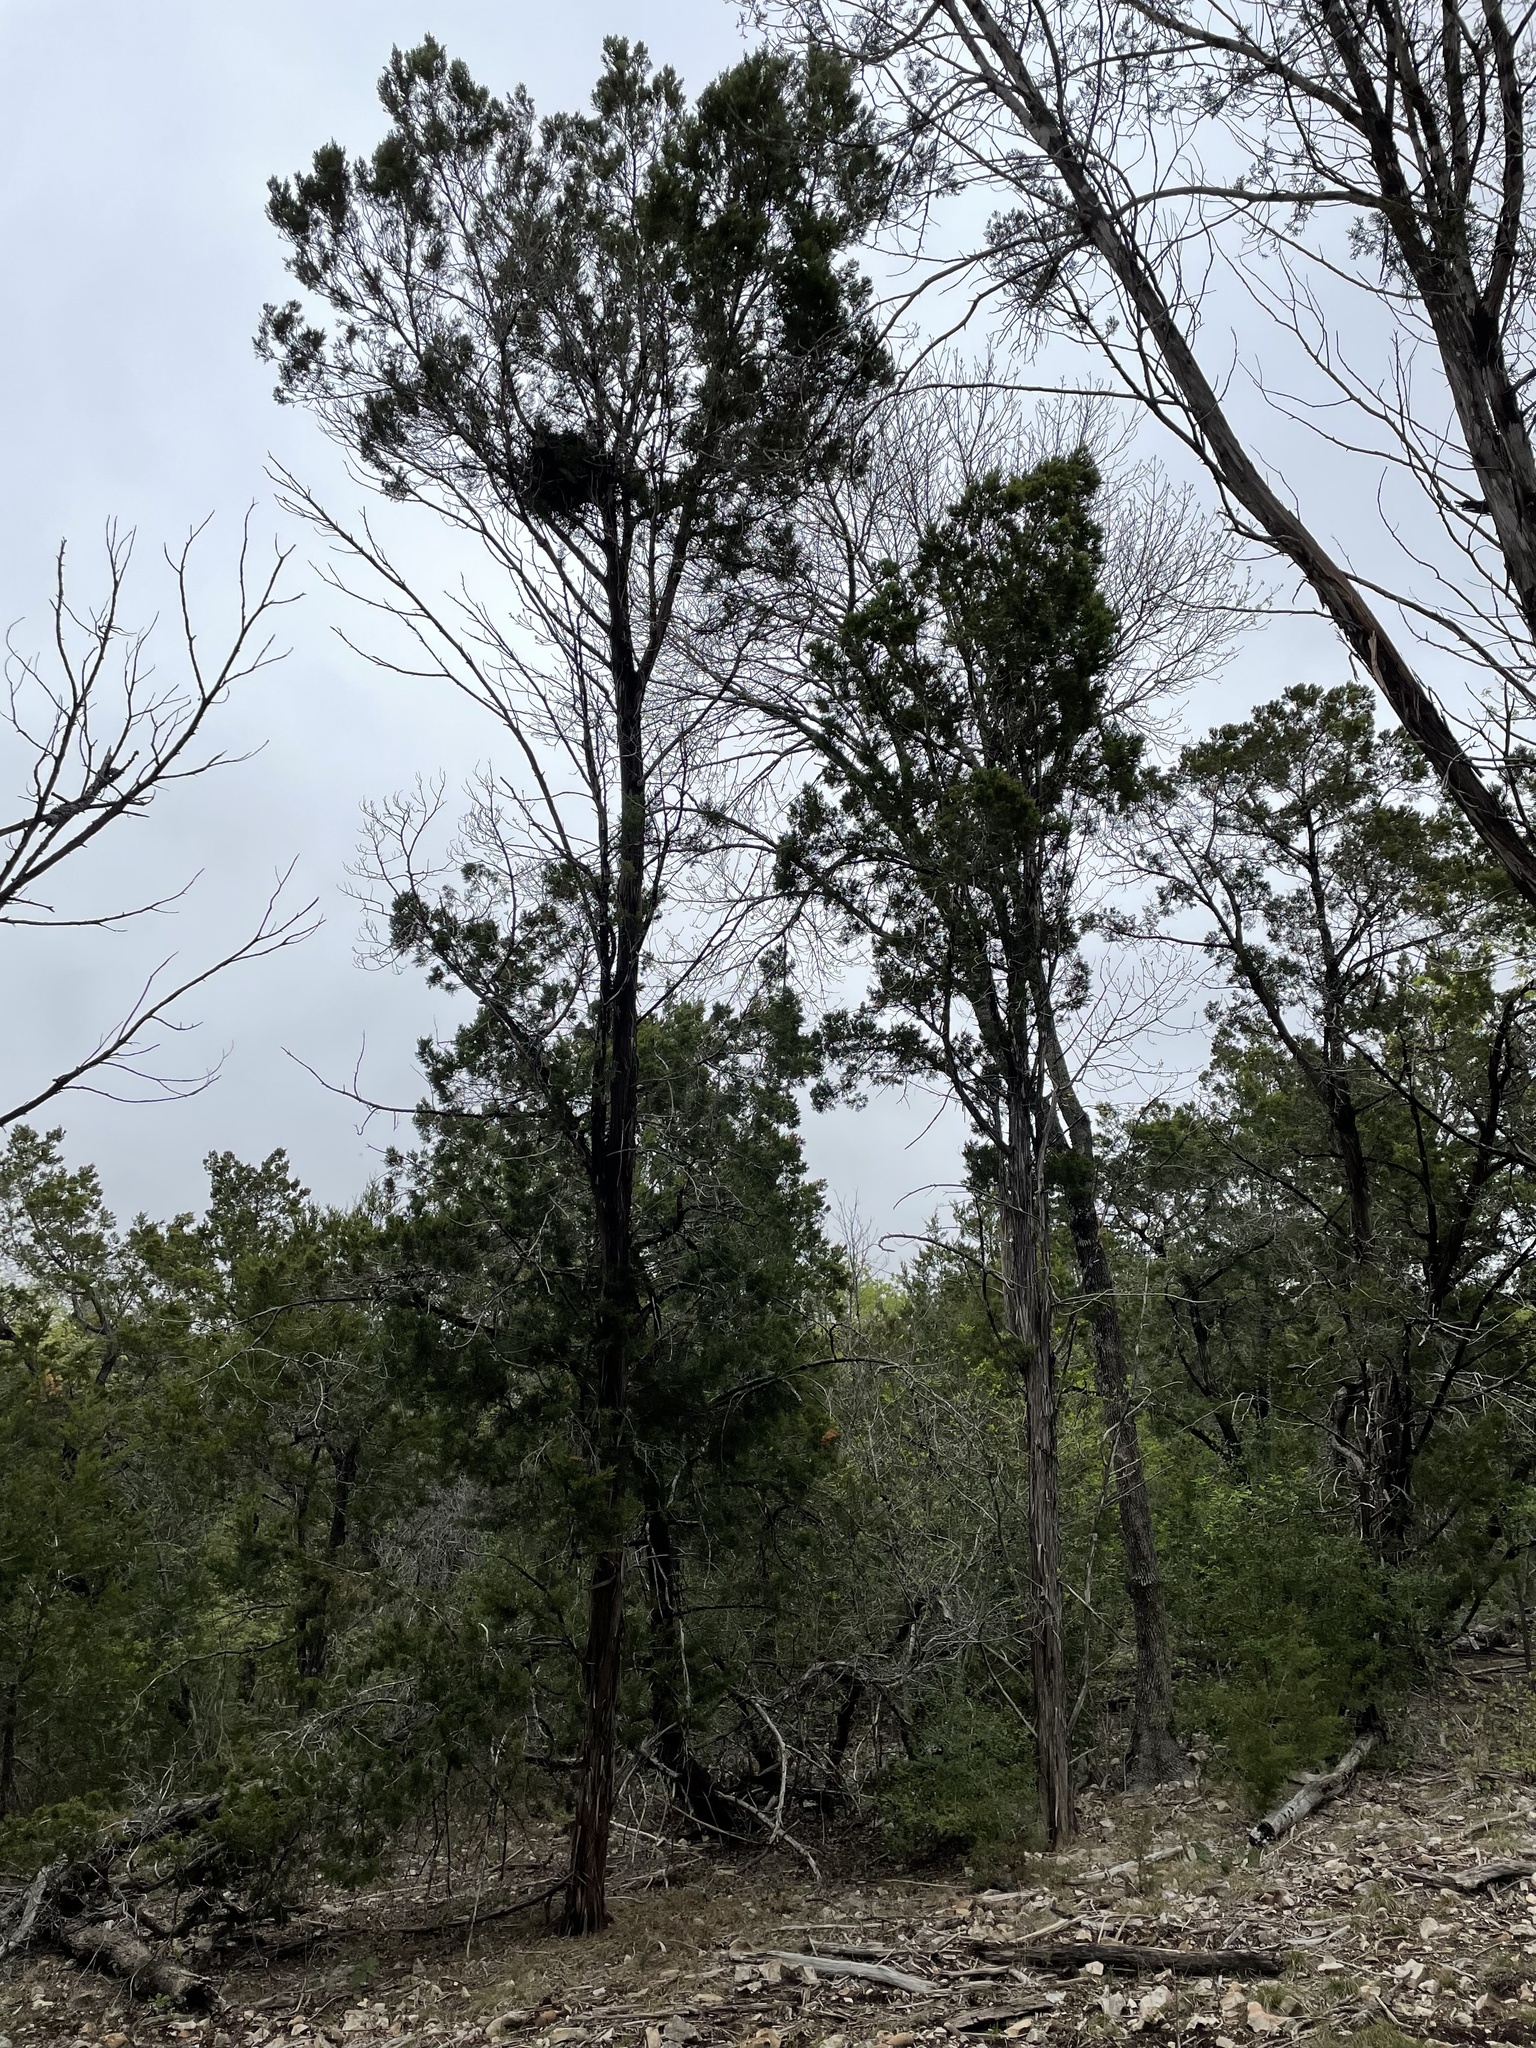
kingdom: Plantae
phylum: Tracheophyta
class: Pinopsida
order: Pinales
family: Cupressaceae
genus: Juniperus
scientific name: Juniperus ashei
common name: Mexican juniper
